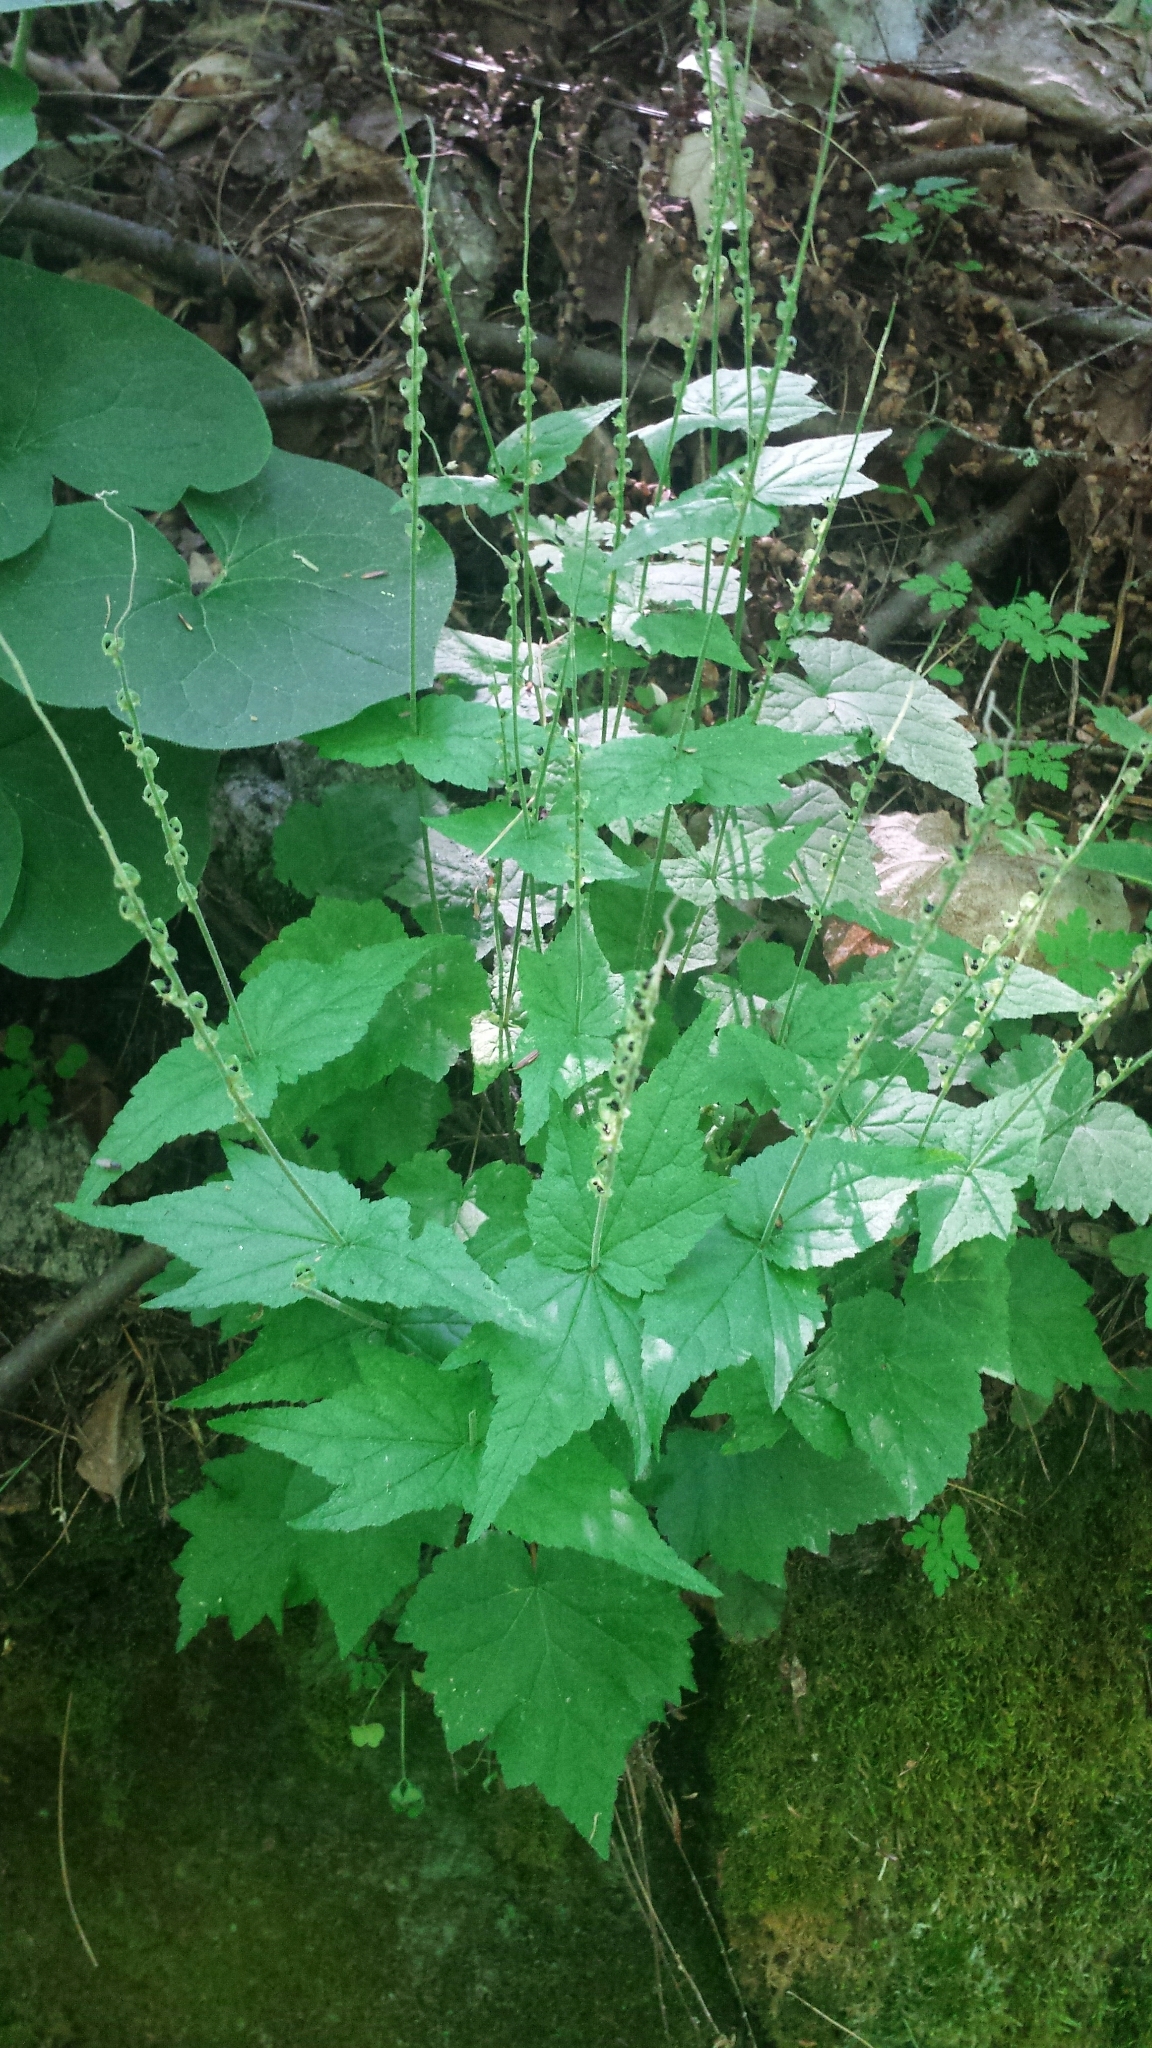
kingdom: Plantae
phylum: Tracheophyta
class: Magnoliopsida
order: Saxifragales
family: Saxifragaceae
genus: Mitella
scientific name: Mitella diphylla
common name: Coolwort
